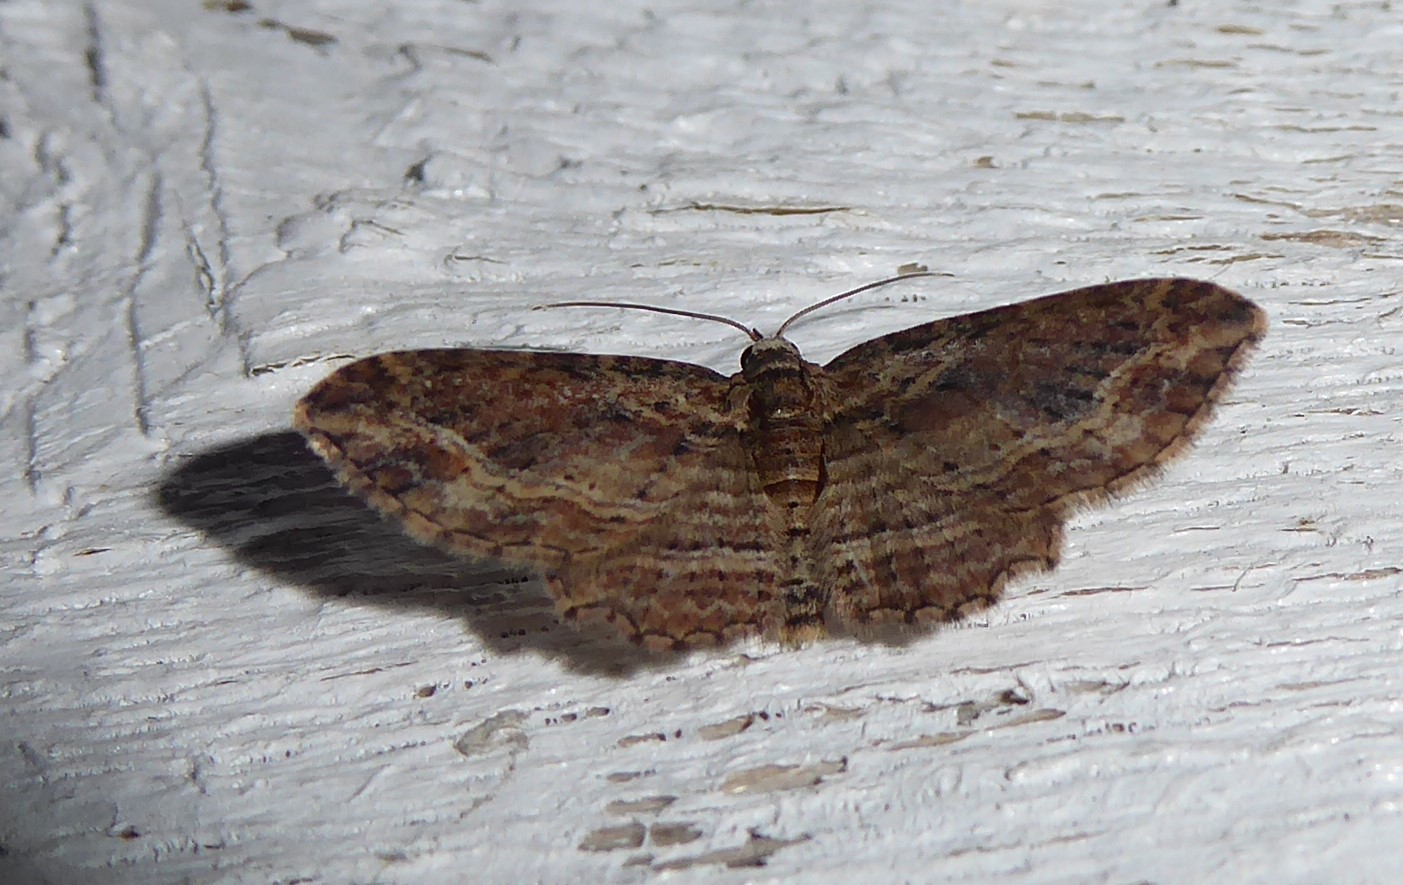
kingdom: Animalia
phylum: Arthropoda
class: Insecta
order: Lepidoptera
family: Geometridae
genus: Chloroclystis
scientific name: Chloroclystis filata
